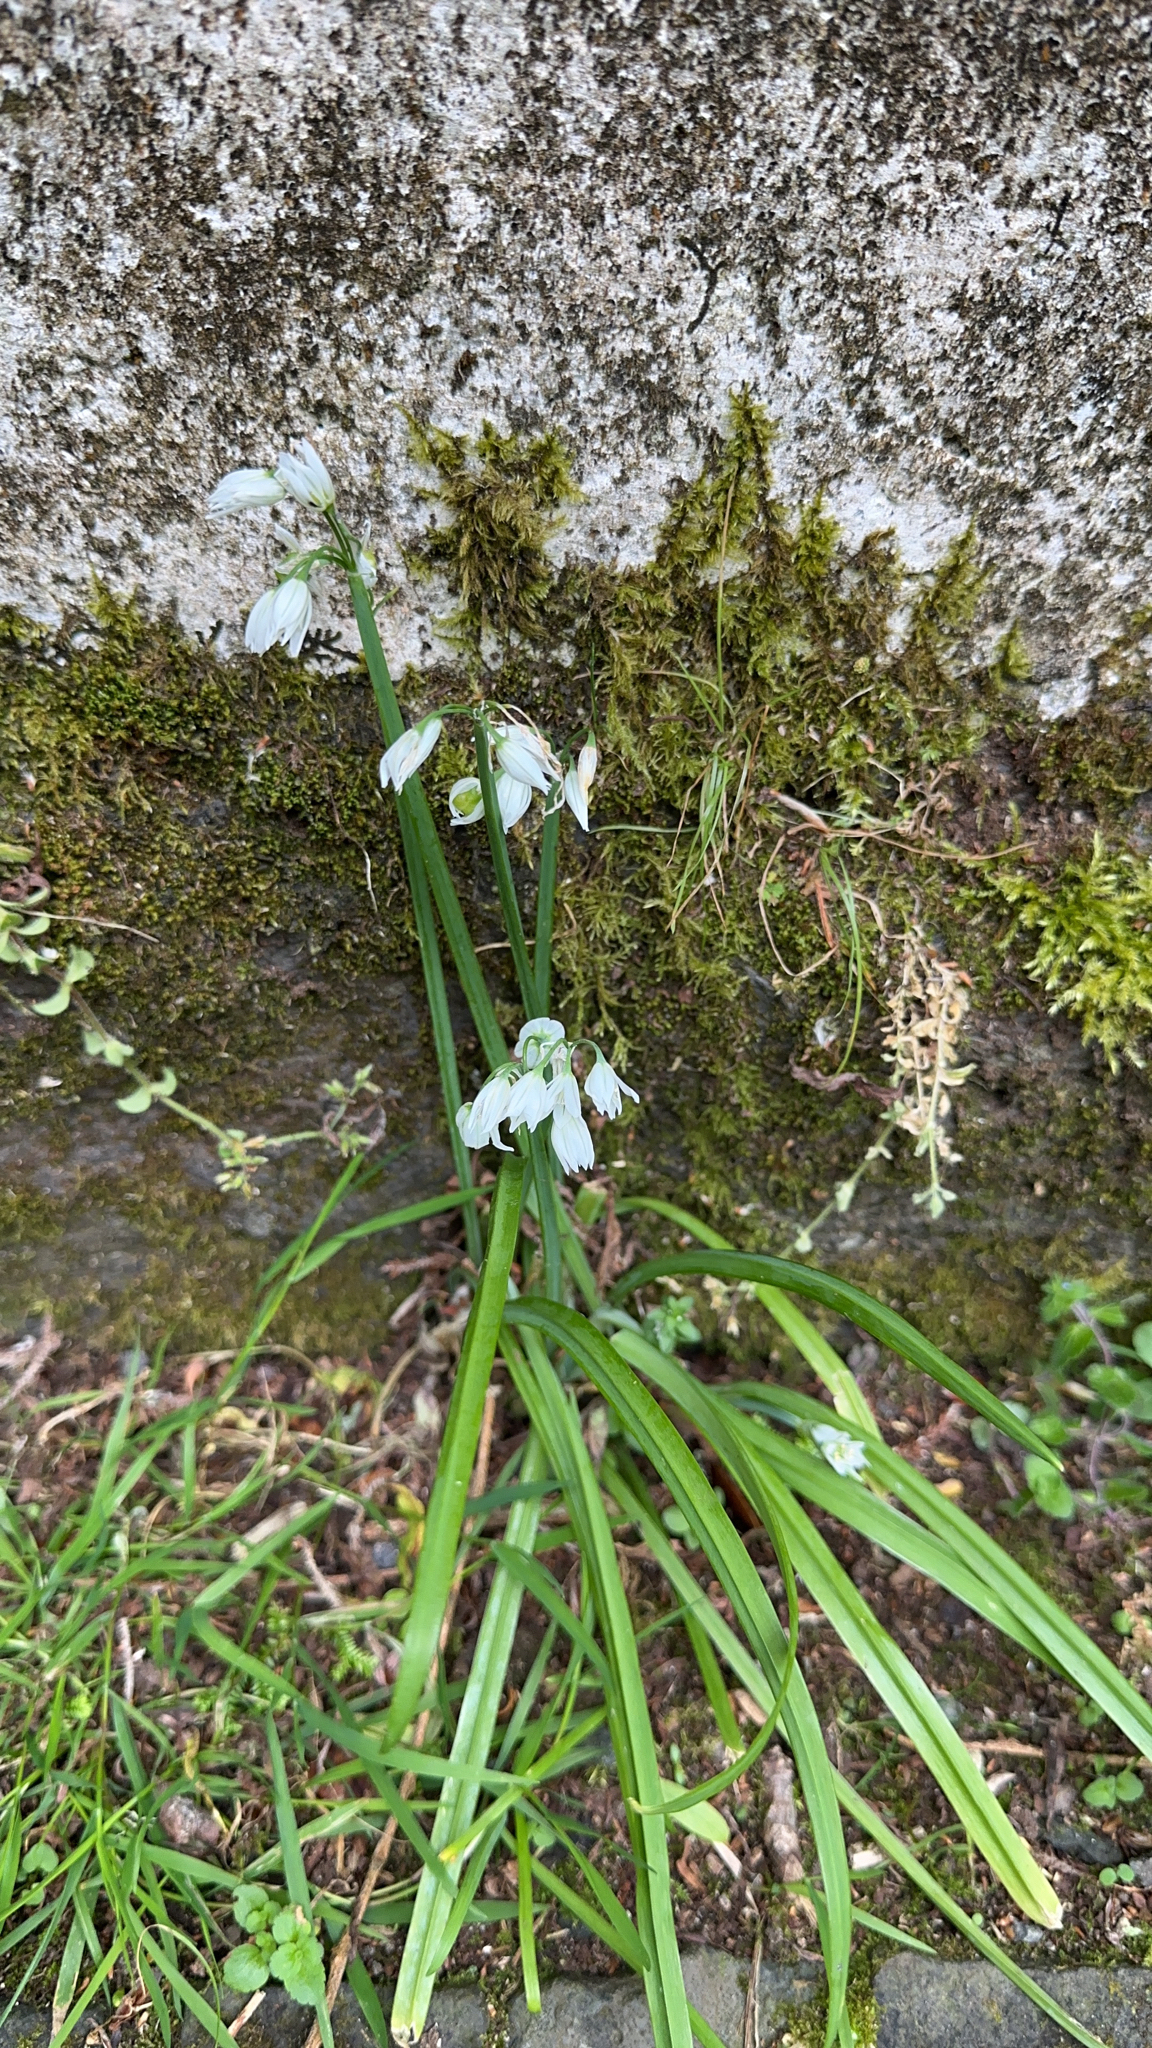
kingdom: Plantae
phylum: Tracheophyta
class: Liliopsida
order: Asparagales
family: Amaryllidaceae
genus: Allium
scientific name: Allium triquetrum
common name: Three-cornered garlic
